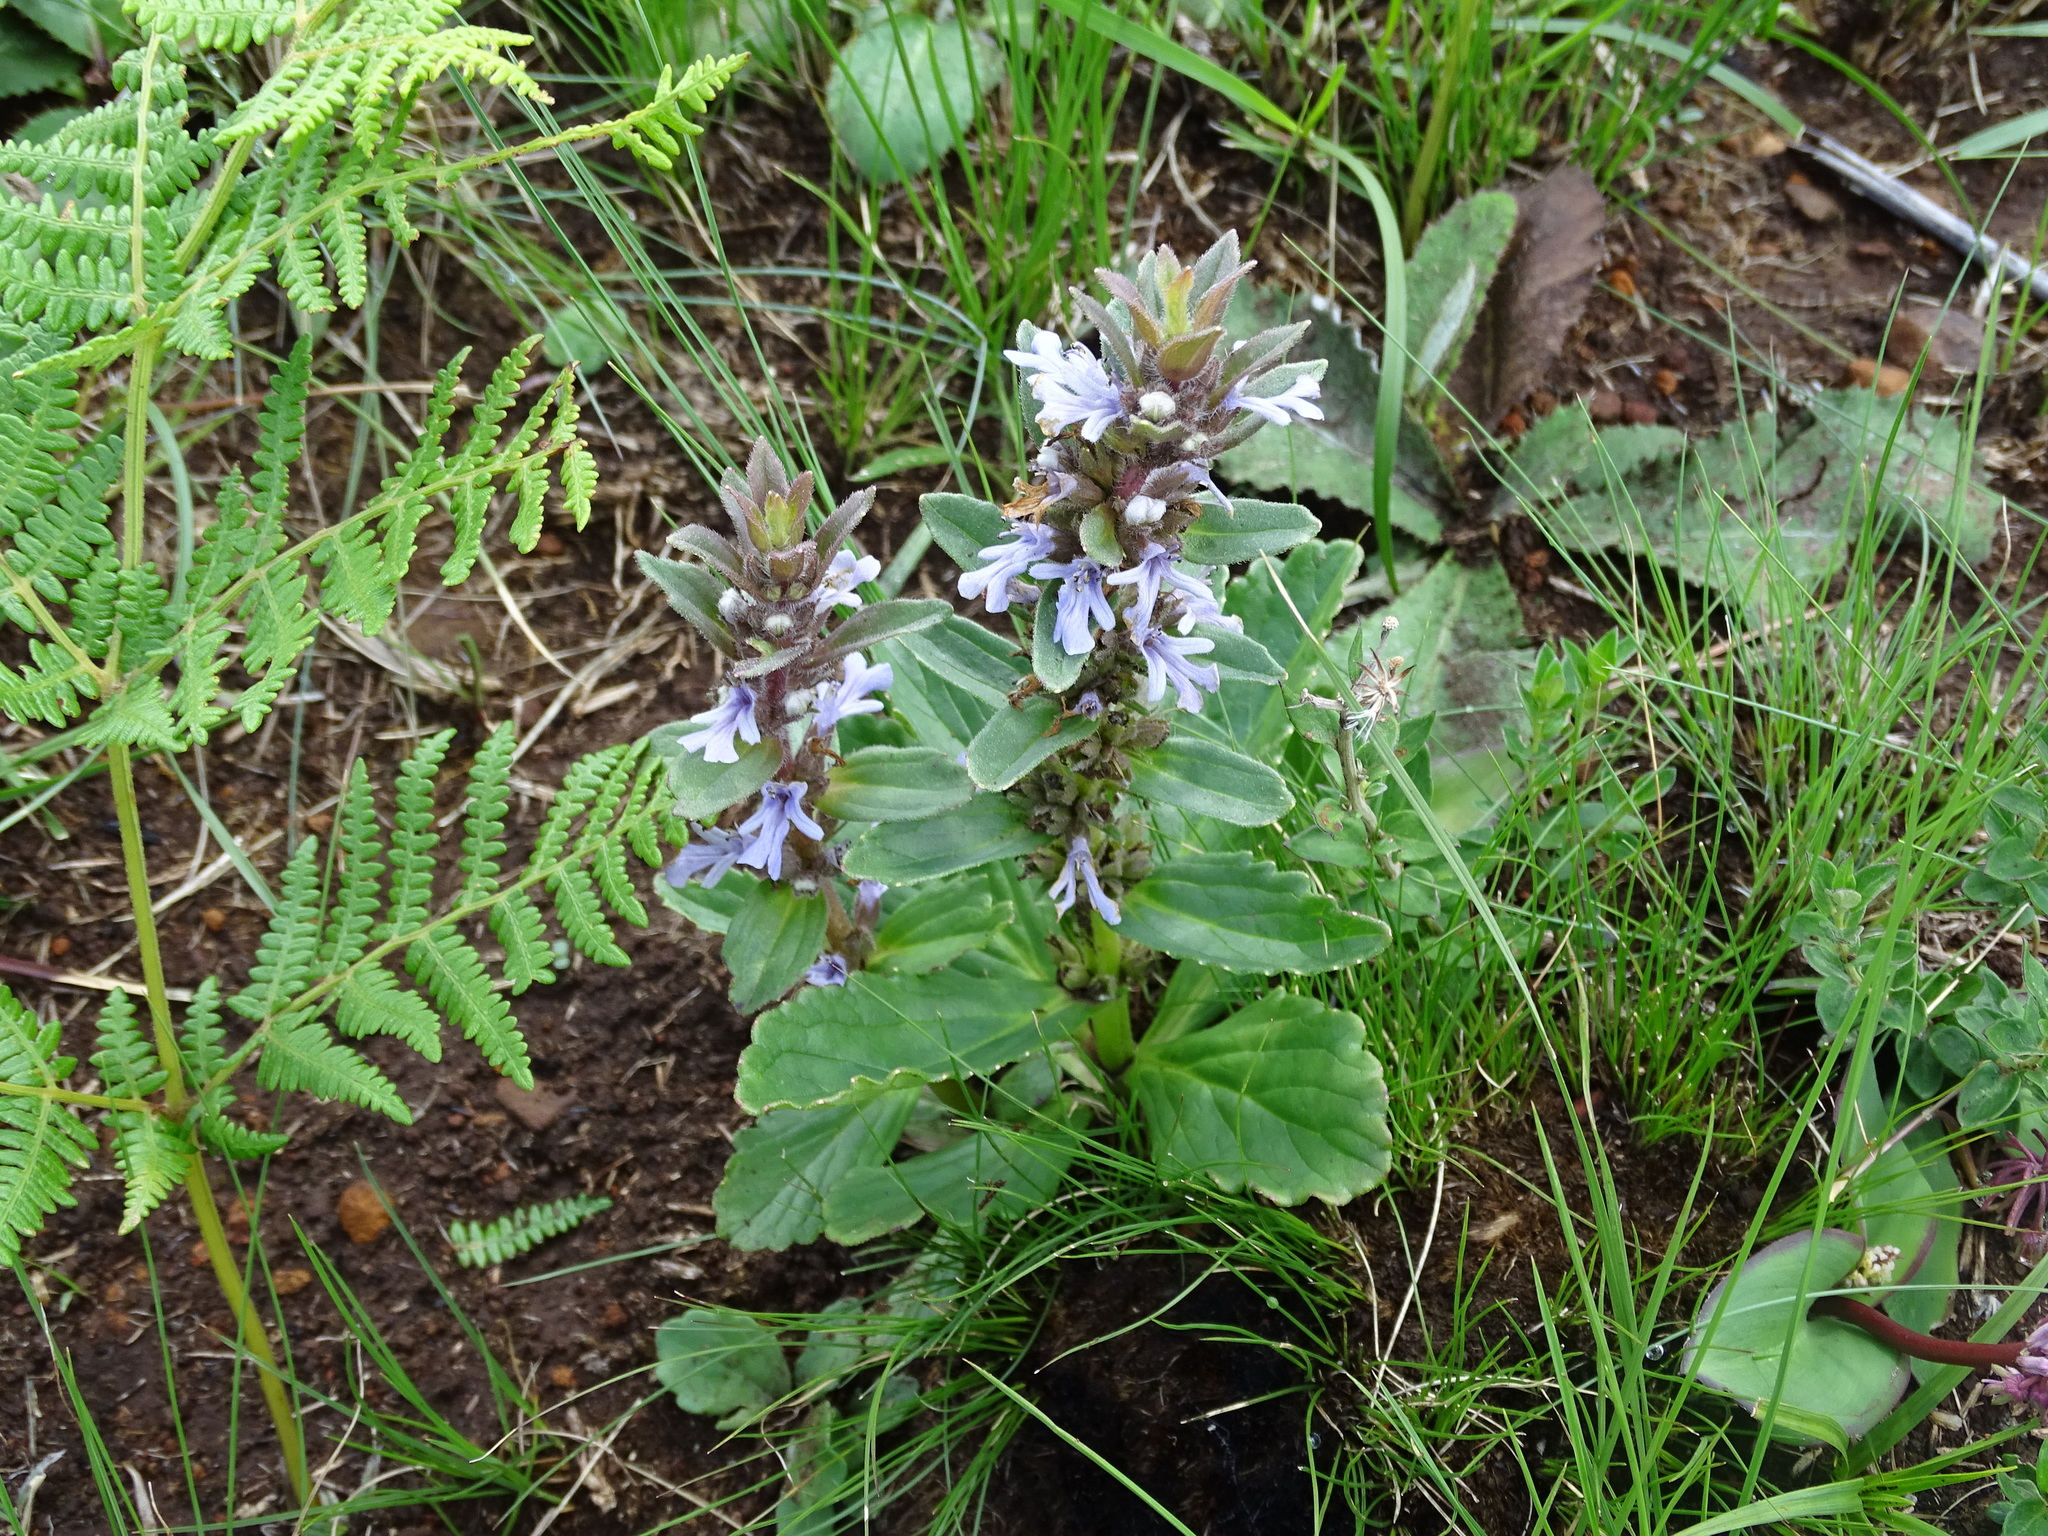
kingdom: Plantae
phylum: Tracheophyta
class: Magnoliopsida
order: Lamiales
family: Lamiaceae
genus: Ajuga
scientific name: Ajuga ophrydis
